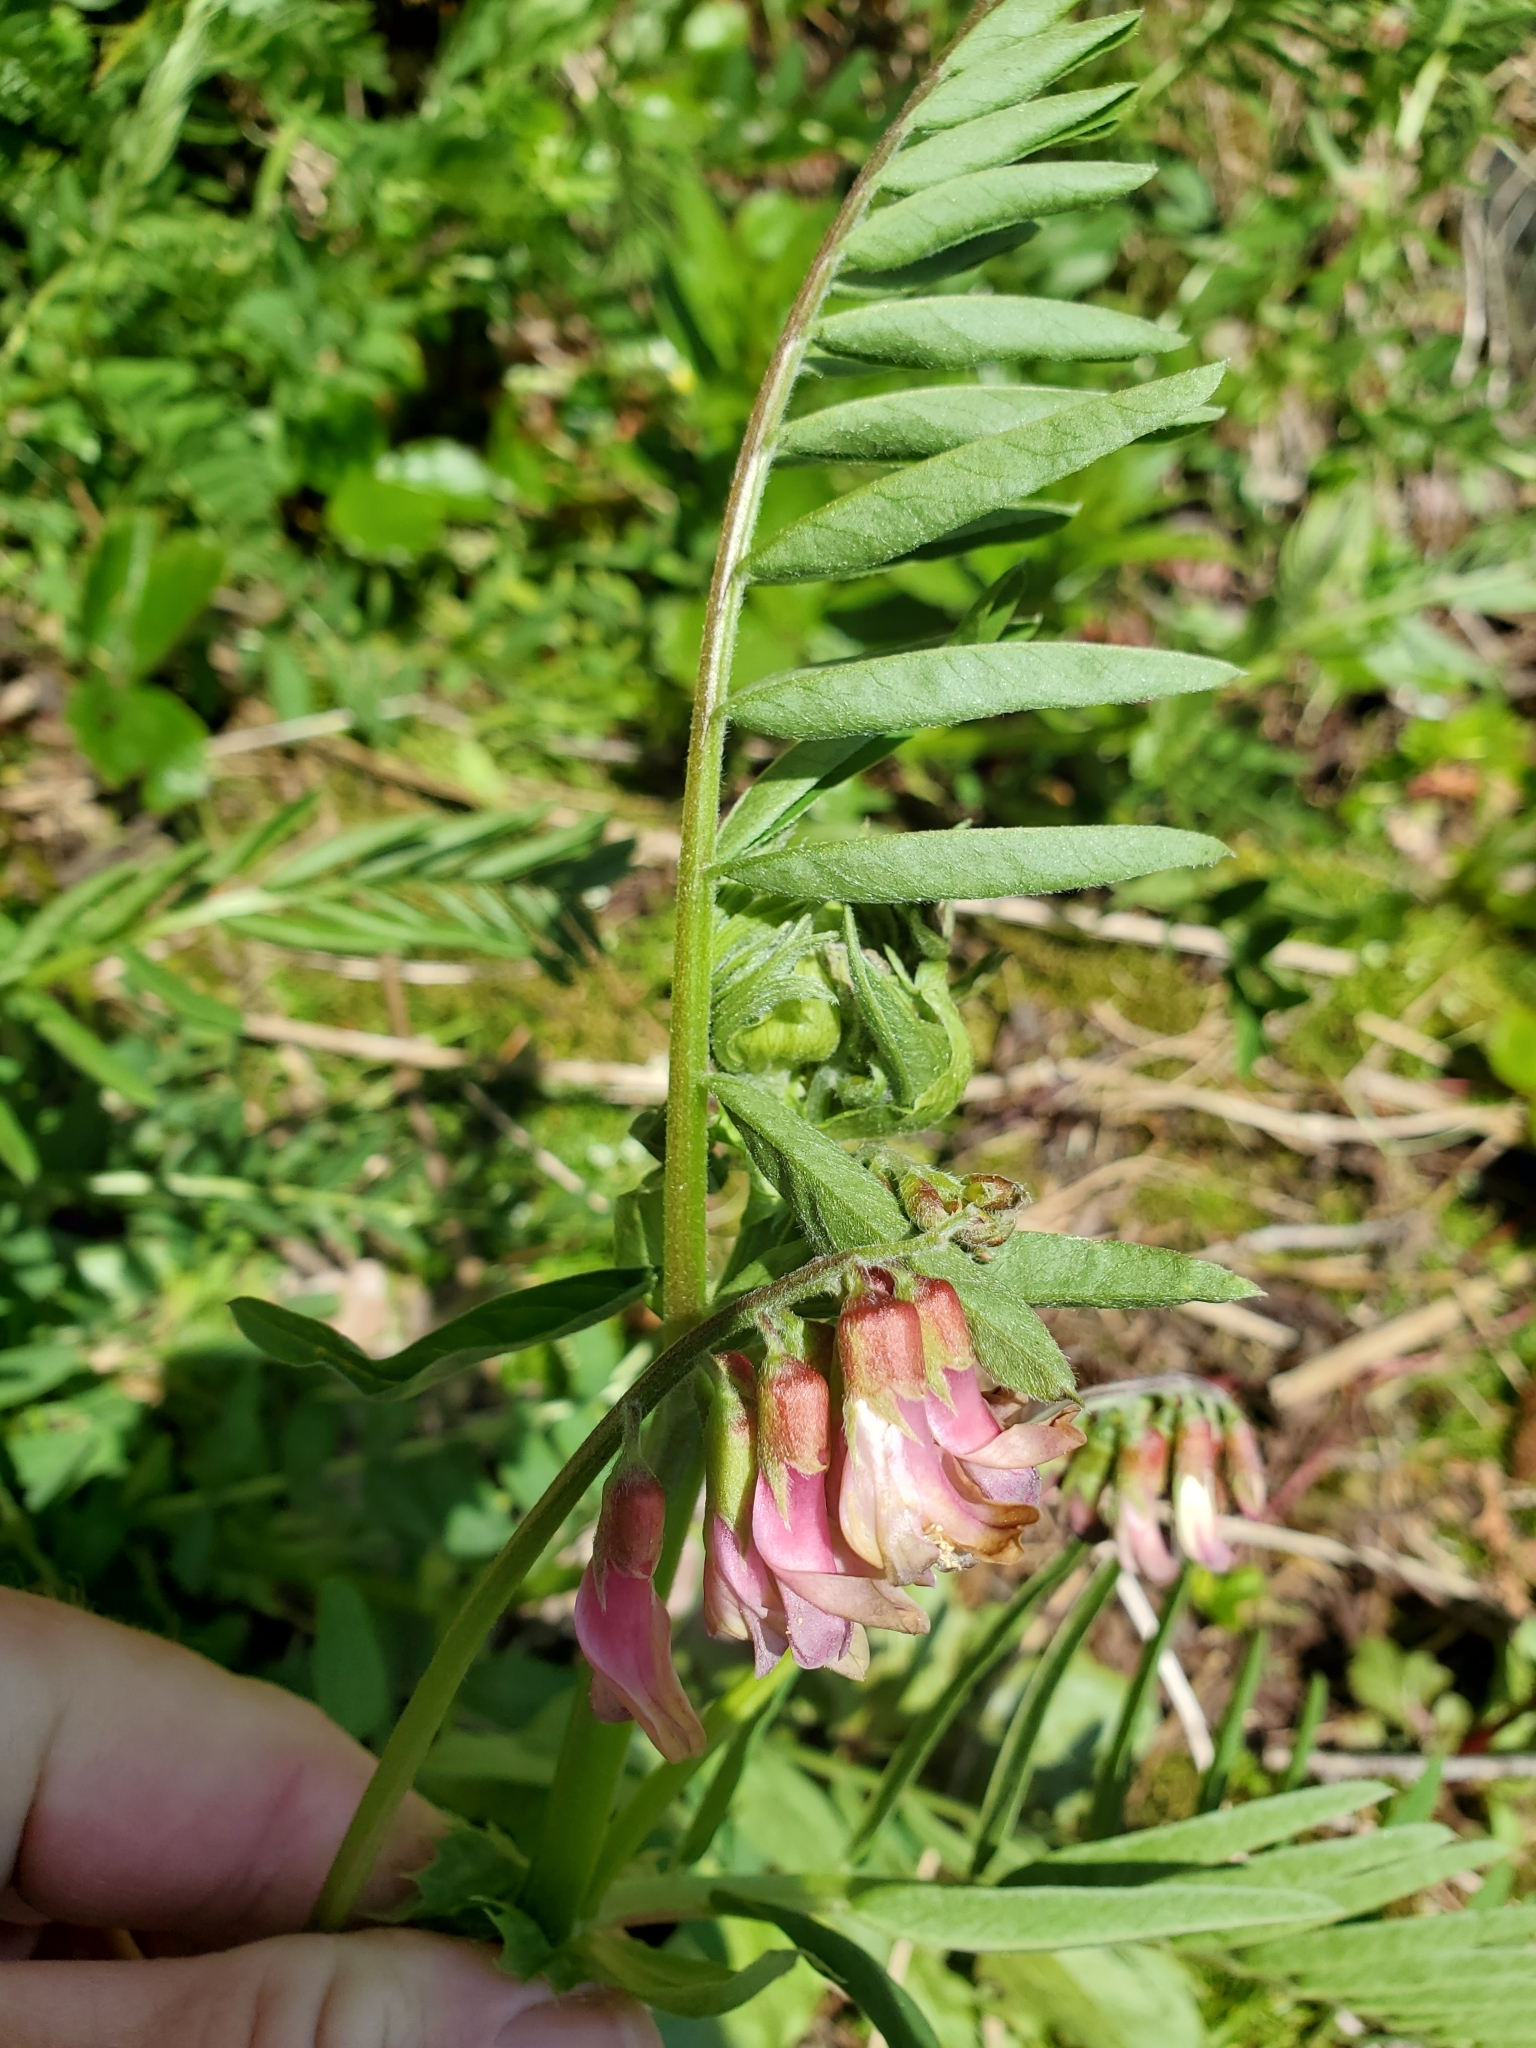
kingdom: Plantae
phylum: Tracheophyta
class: Magnoliopsida
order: Fabales
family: Fabaceae
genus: Vicia
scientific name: Vicia
